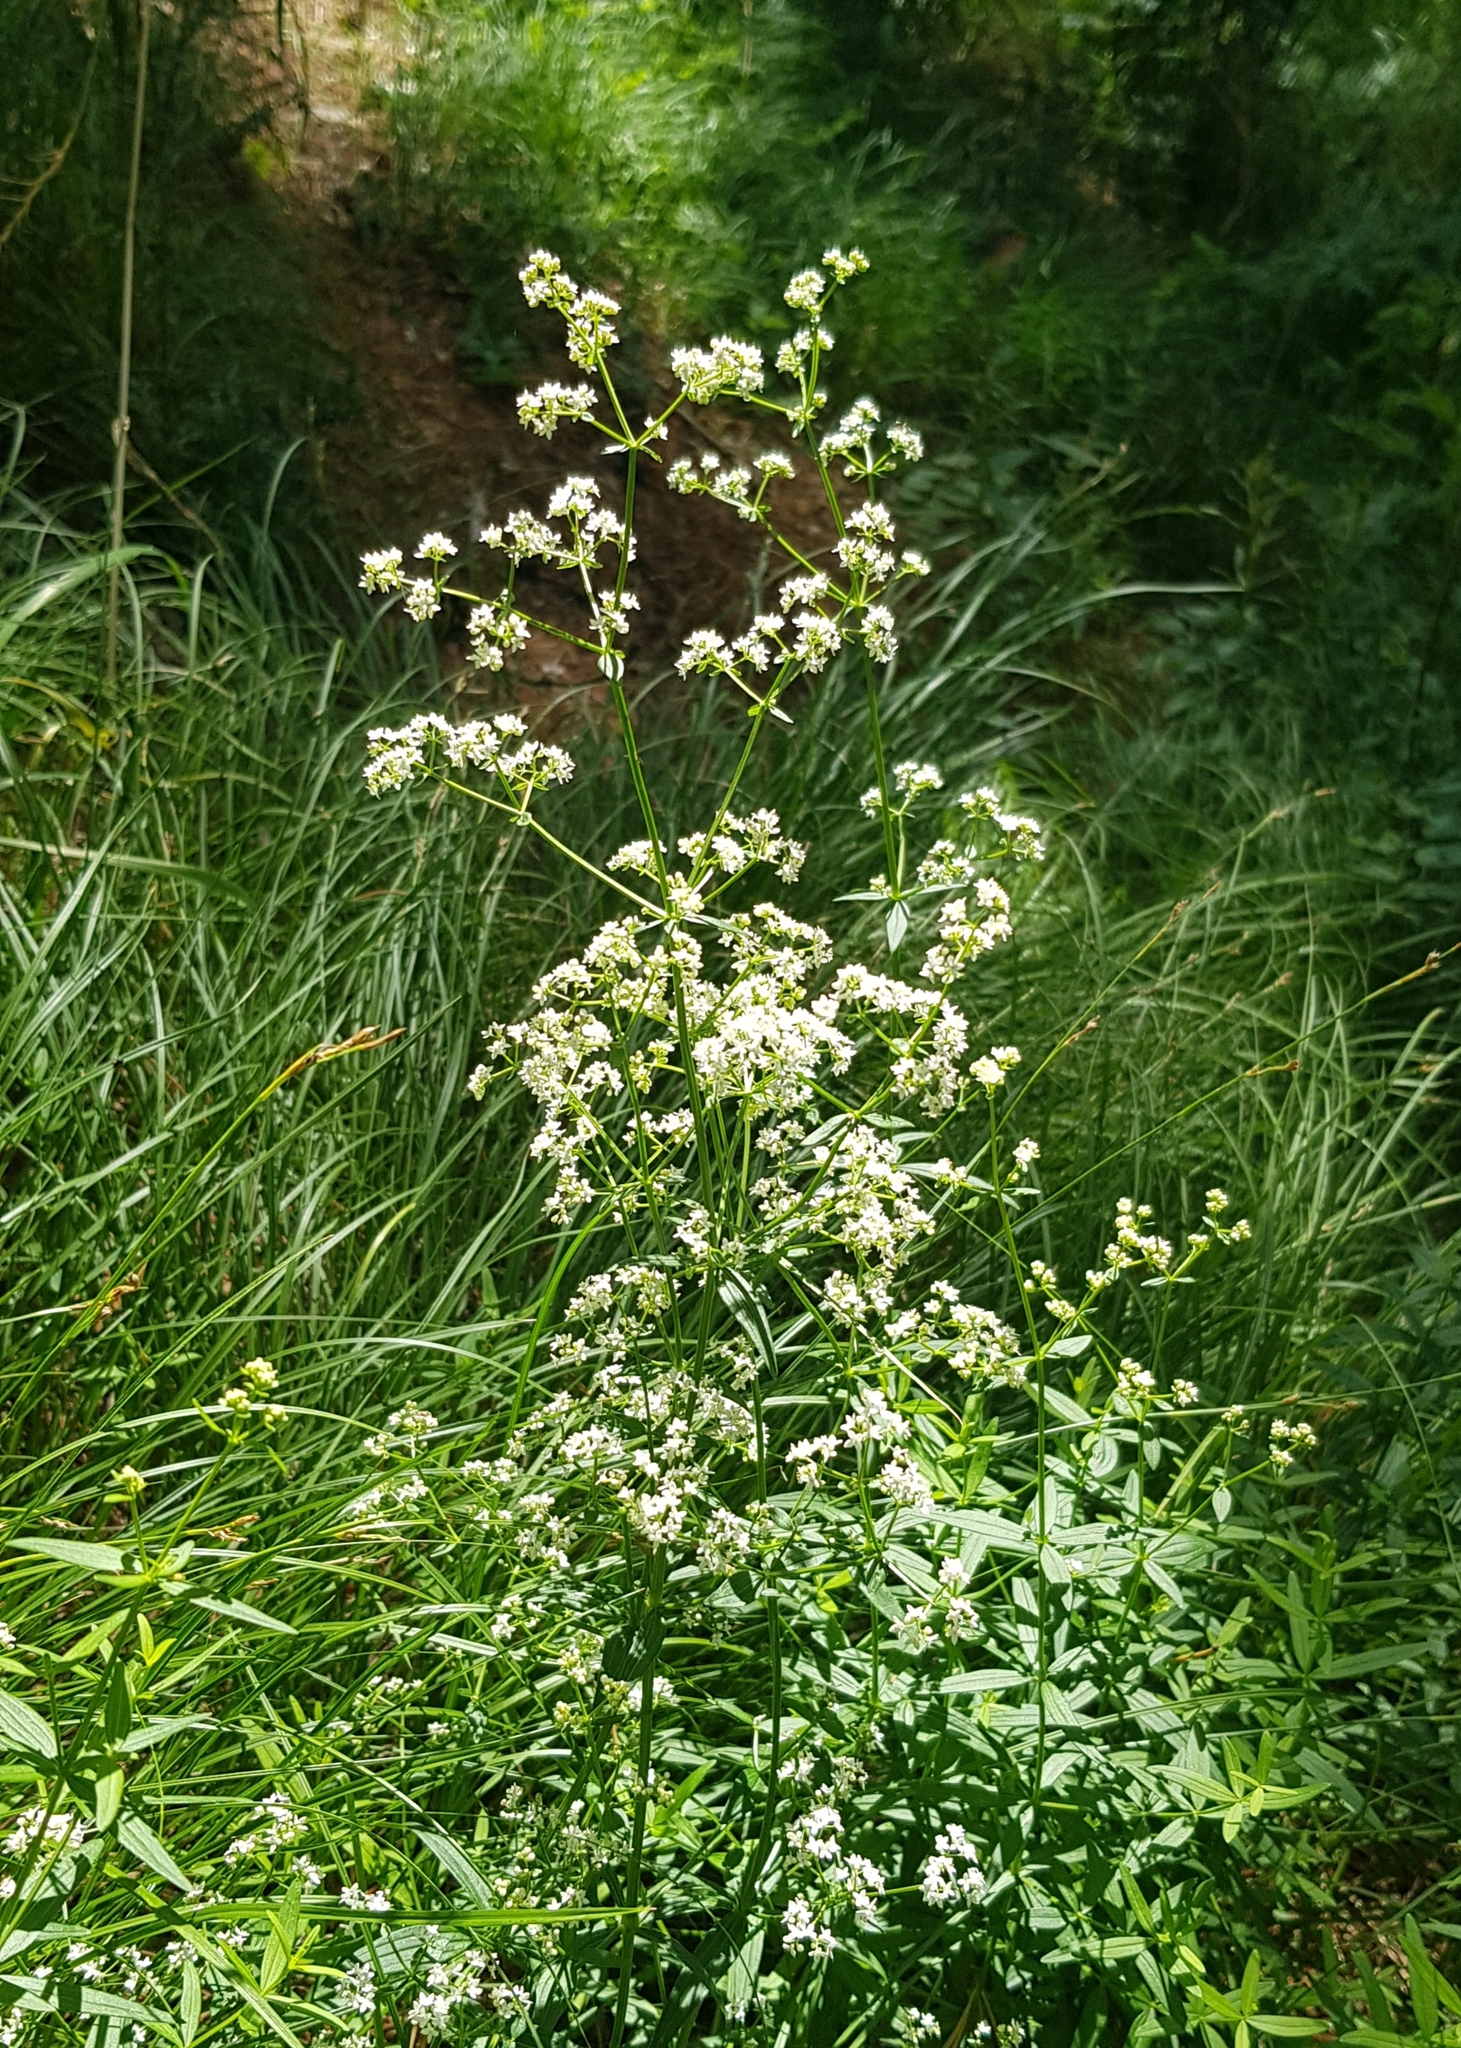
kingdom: Plantae
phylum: Tracheophyta
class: Magnoliopsida
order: Gentianales
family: Rubiaceae
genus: Galium
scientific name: Galium boreale
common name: Northern bedstraw
